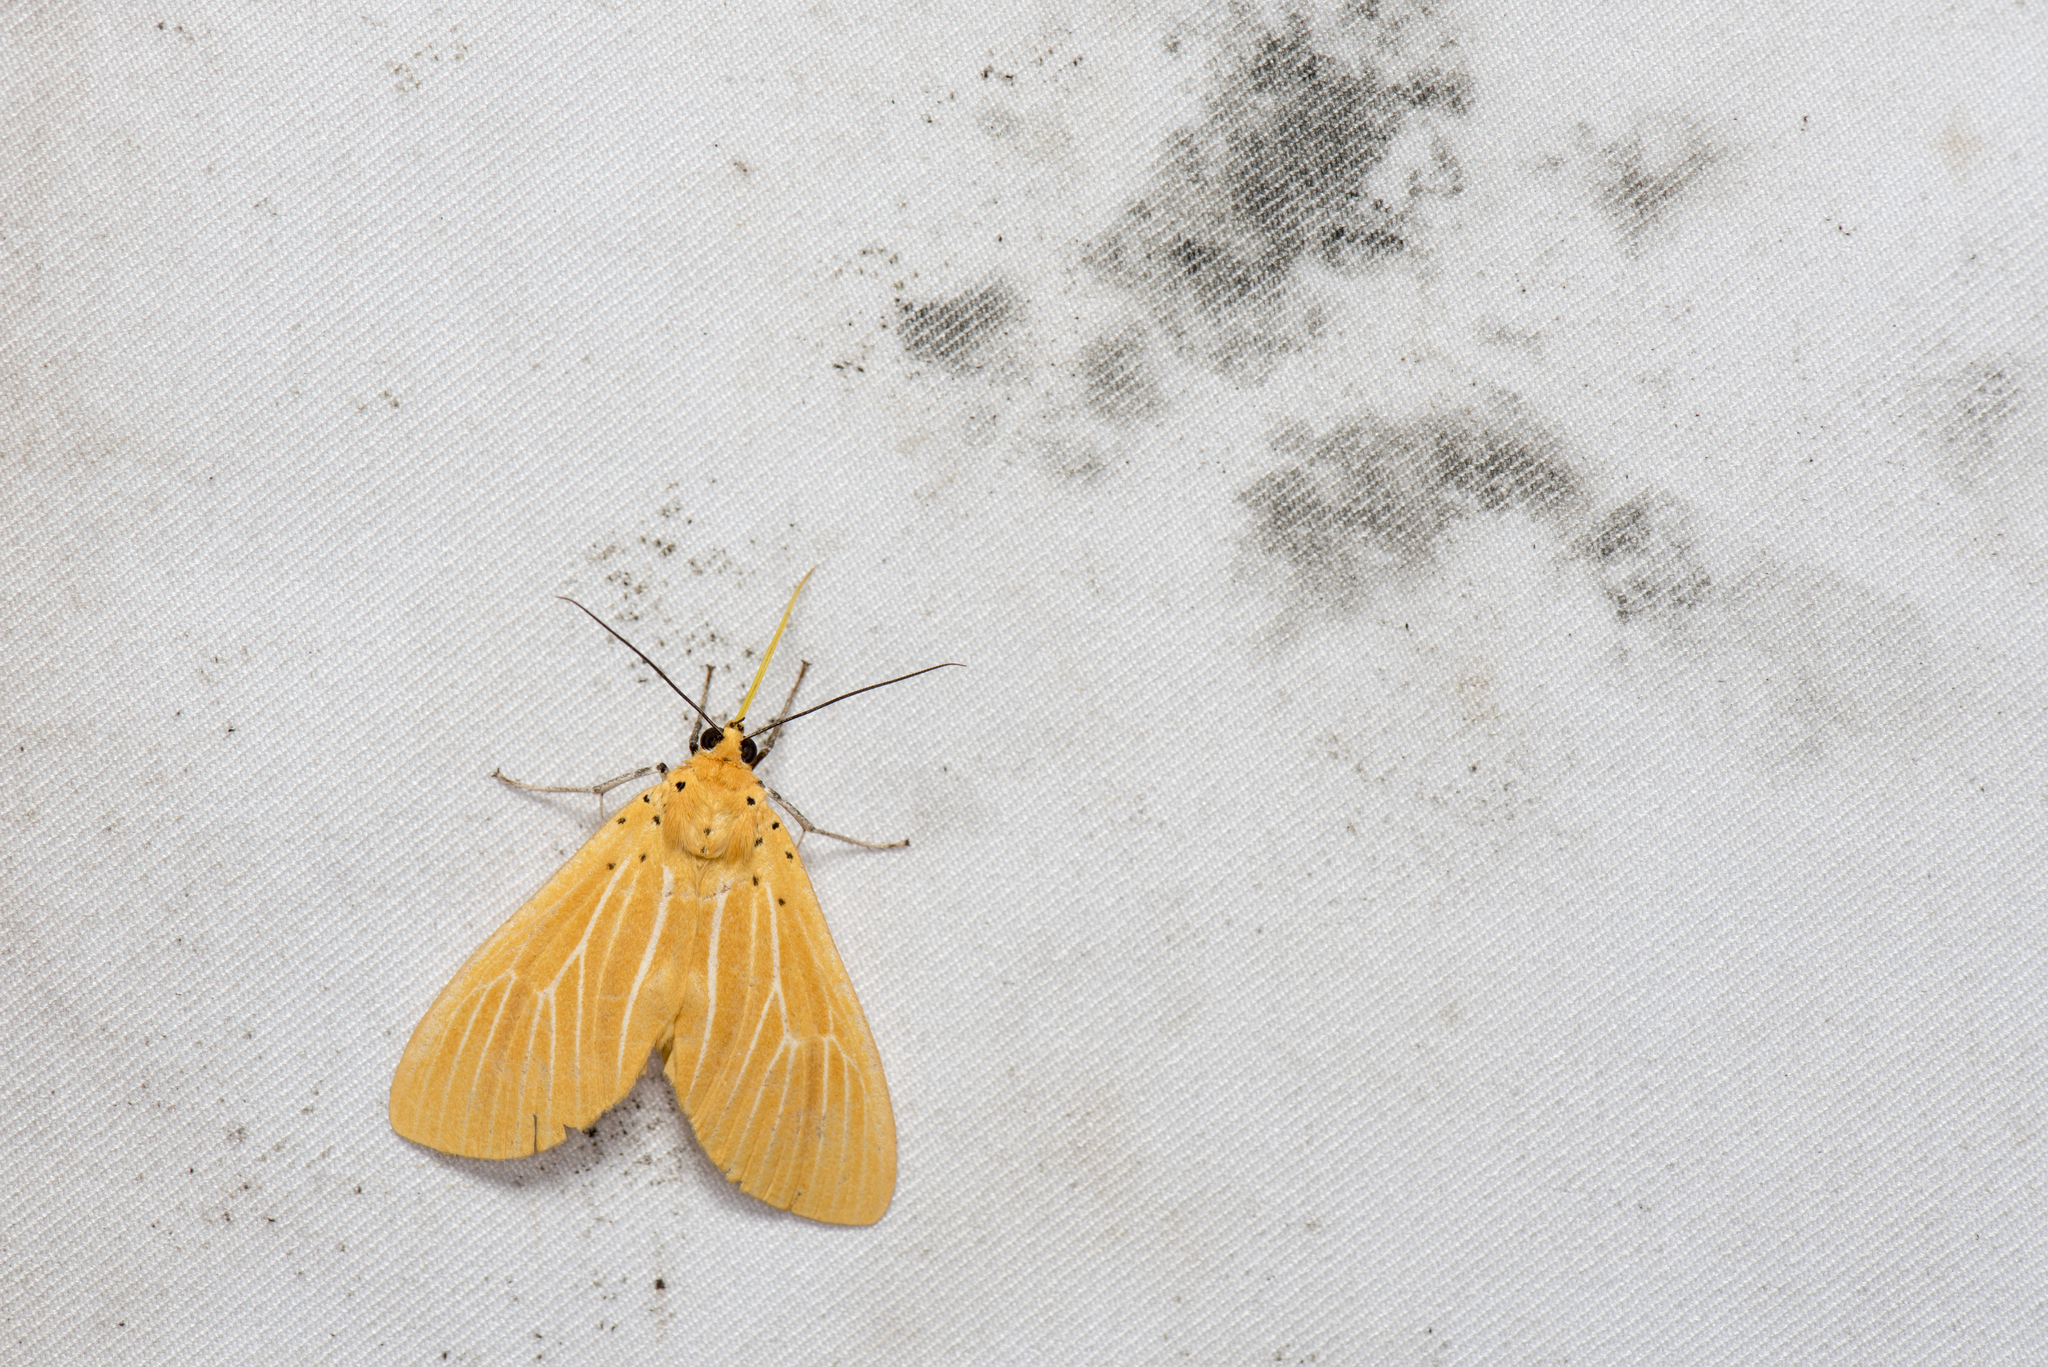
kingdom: Animalia
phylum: Arthropoda
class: Insecta
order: Lepidoptera
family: Erebidae
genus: Asota
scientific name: Asota egens
